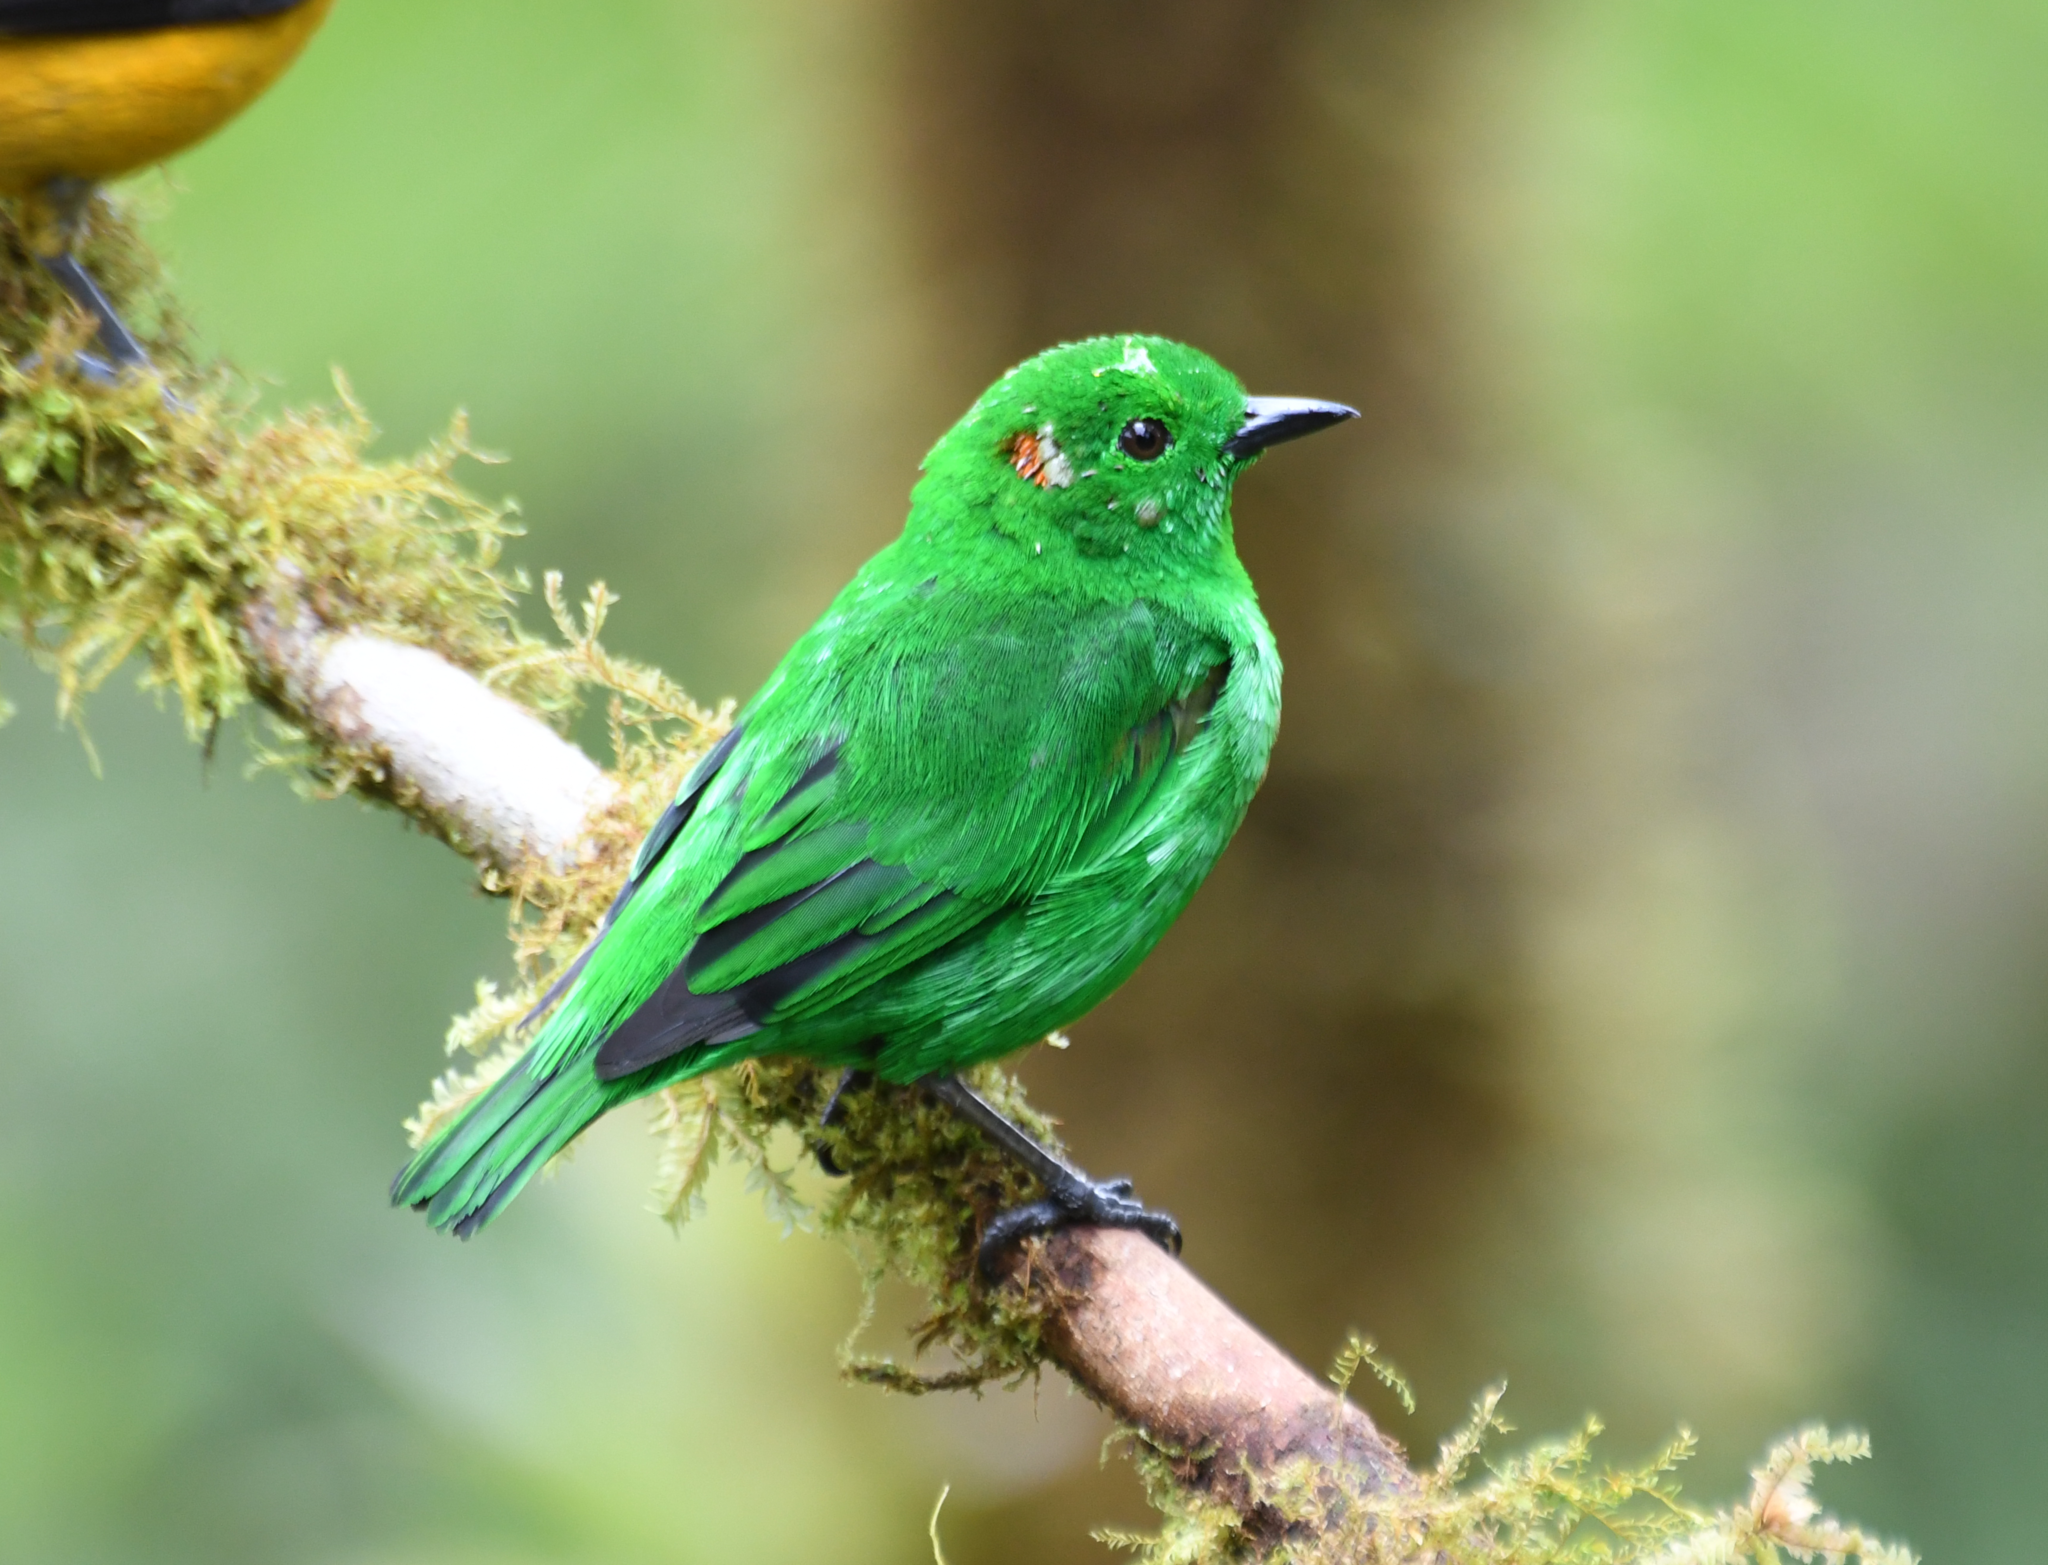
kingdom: Animalia
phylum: Chordata
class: Aves
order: Passeriformes
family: Thraupidae
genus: Chlorochrysa
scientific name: Chlorochrysa phoenicotis
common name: Glistening-green tanager
